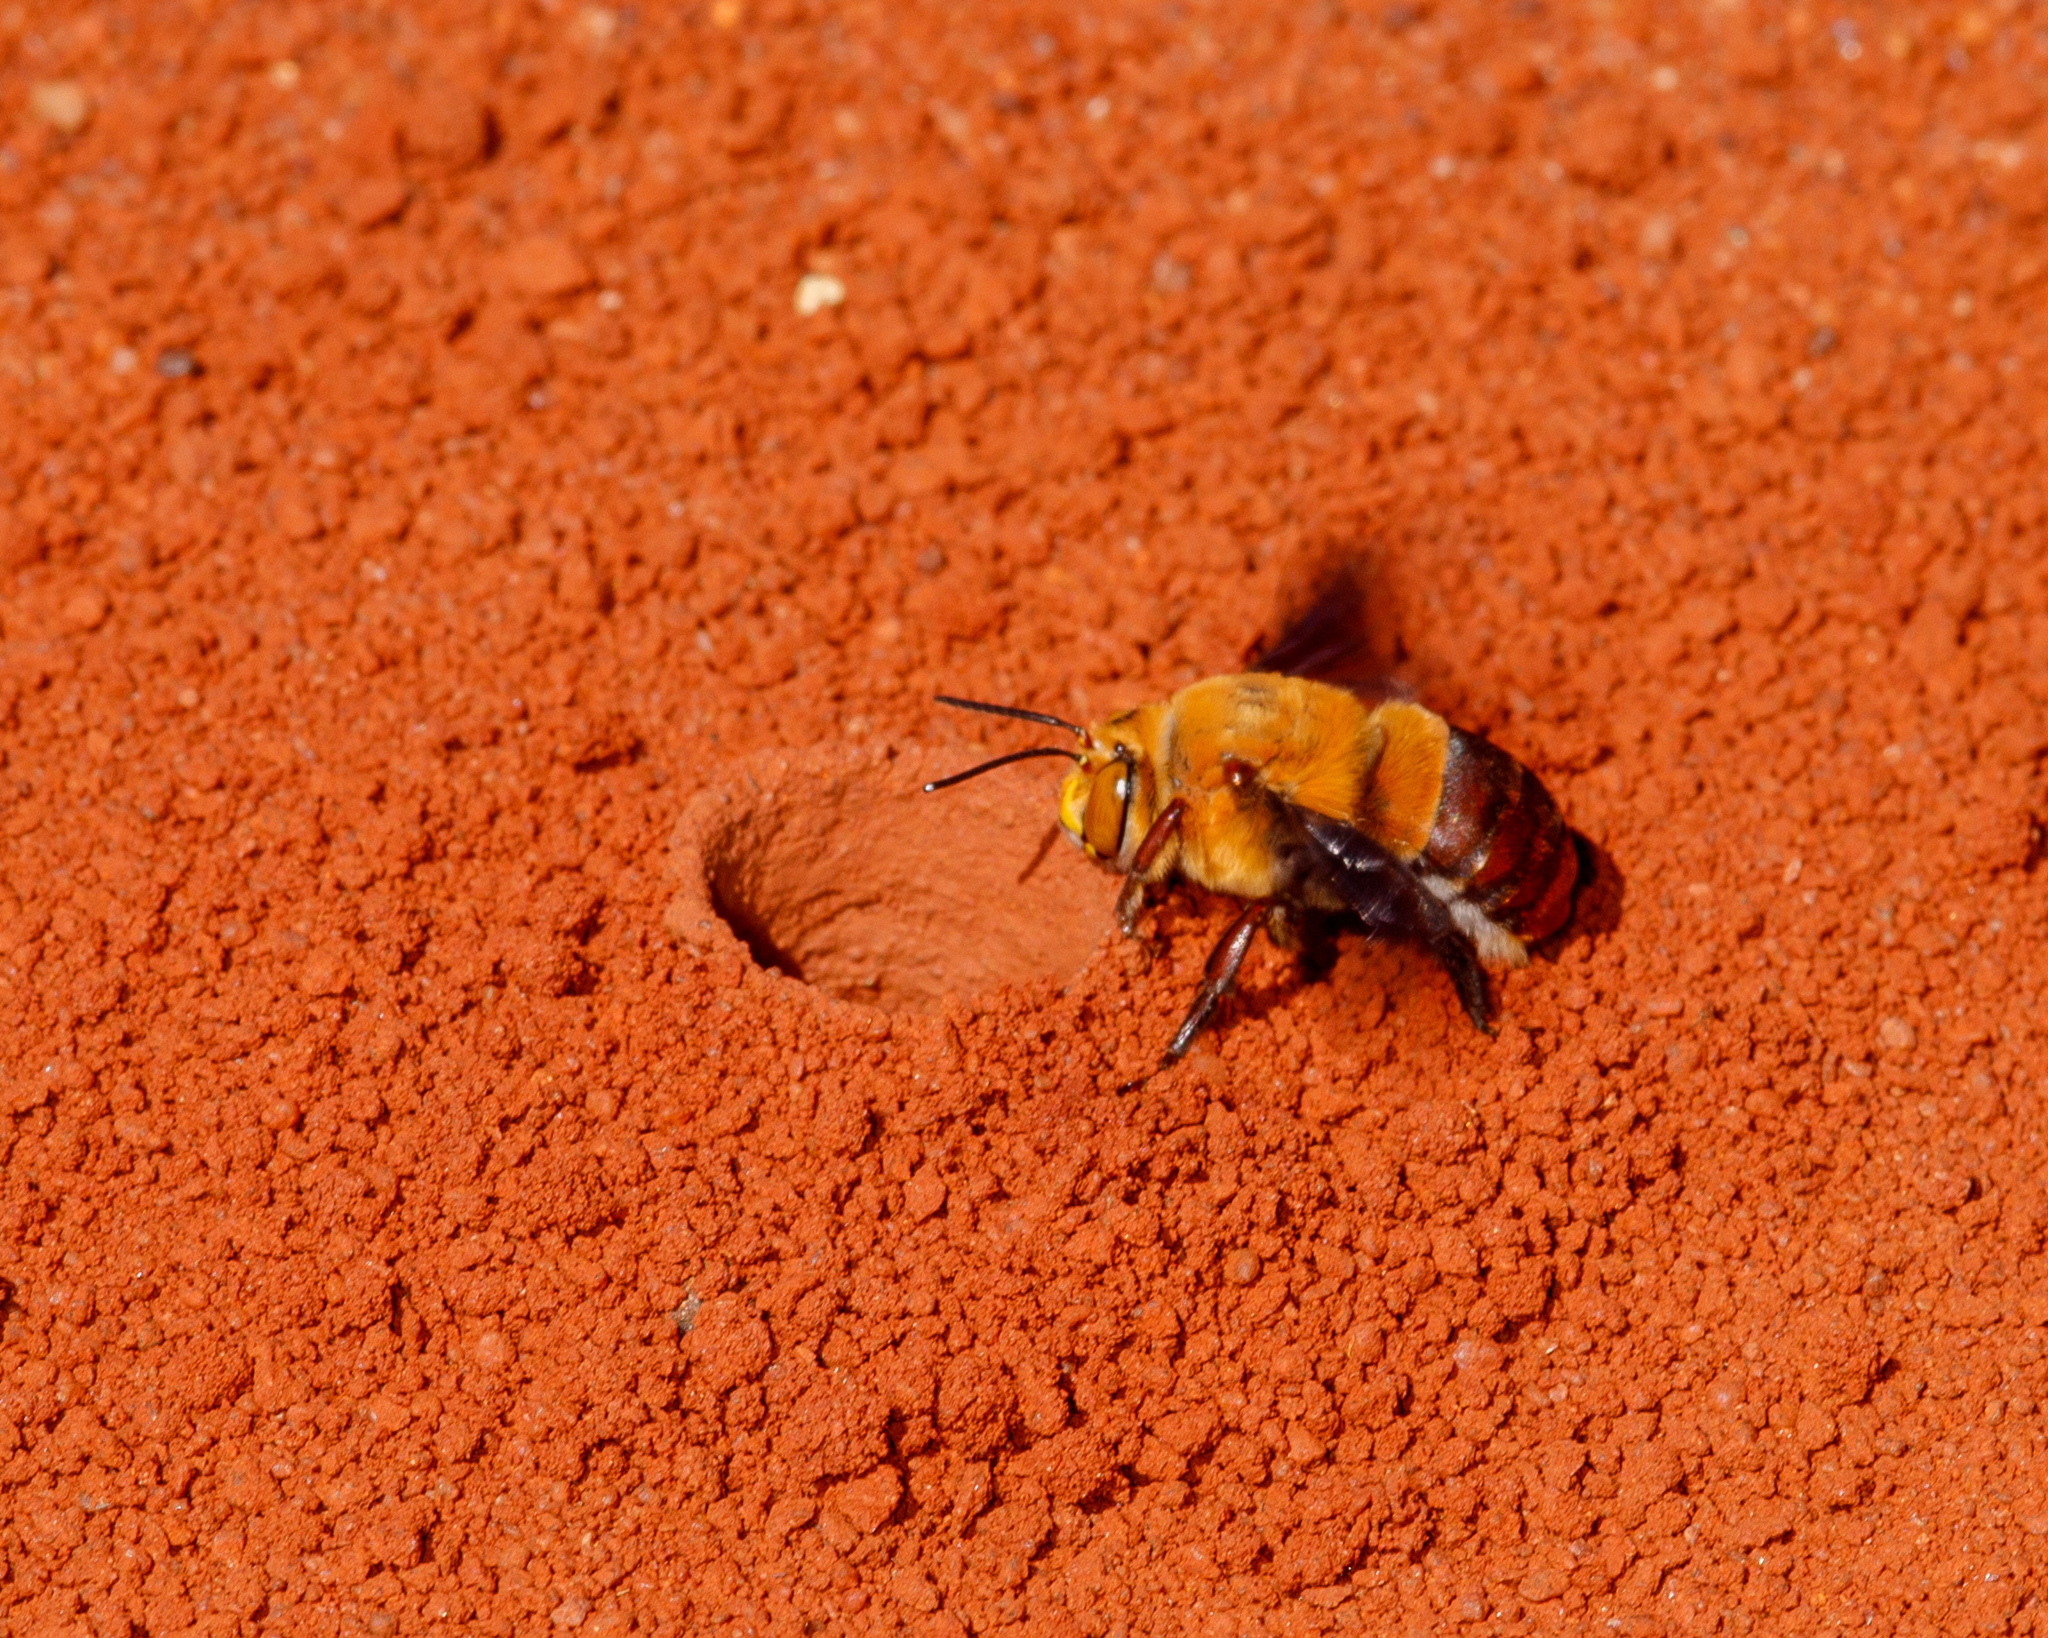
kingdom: Animalia
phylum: Arthropoda
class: Insecta
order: Hymenoptera
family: Apidae
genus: Amegilla
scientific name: Amegilla dawsoni
